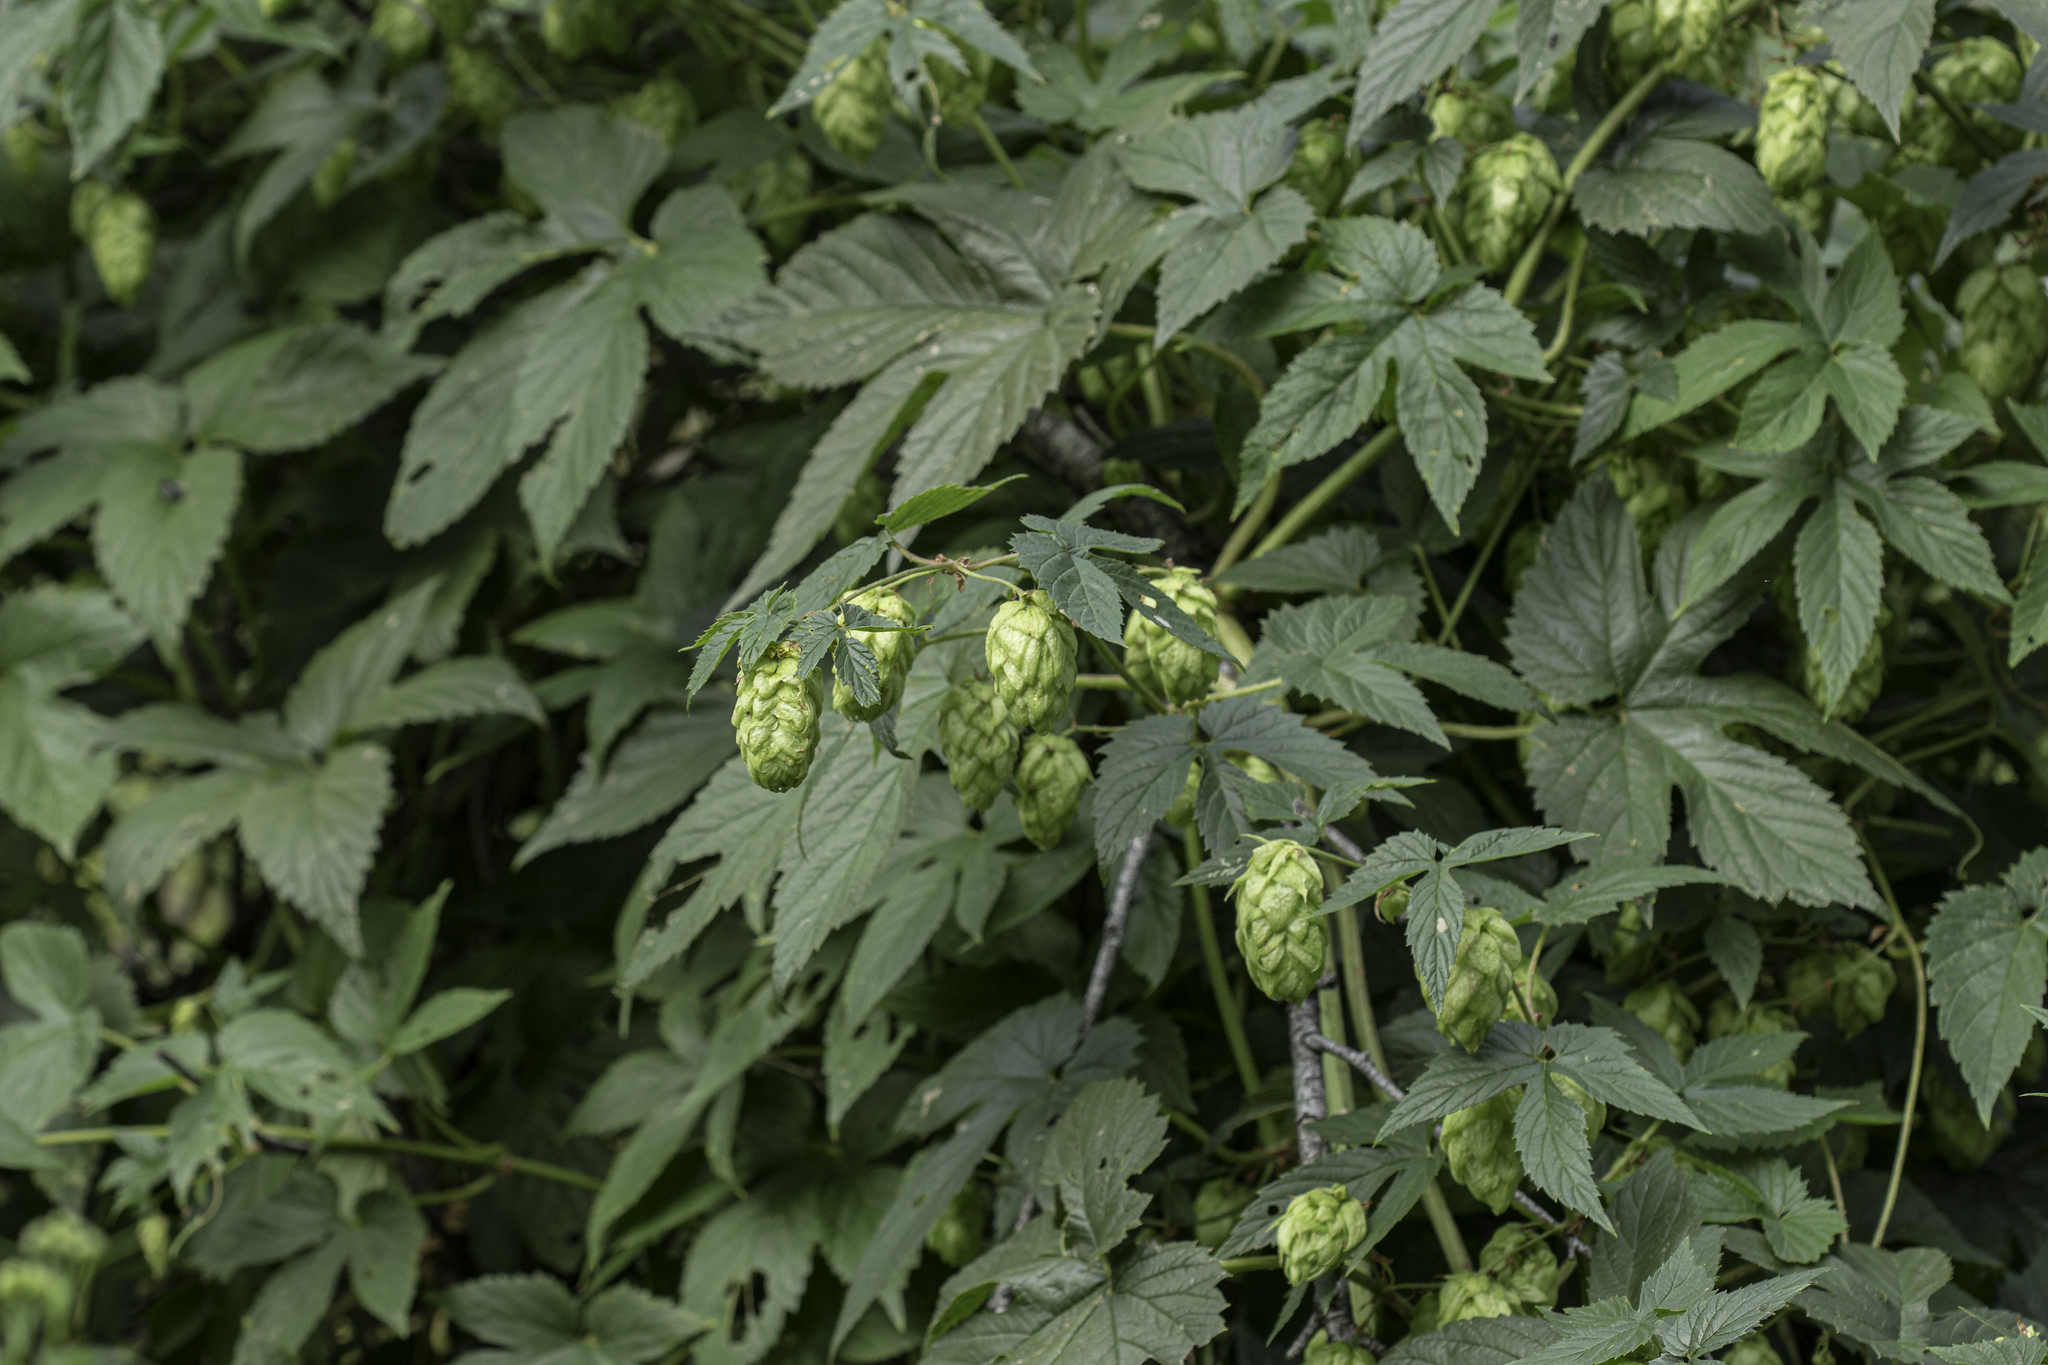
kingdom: Plantae
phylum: Tracheophyta
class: Magnoliopsida
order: Rosales
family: Cannabaceae
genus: Humulus
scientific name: Humulus lupulus
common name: Hop
